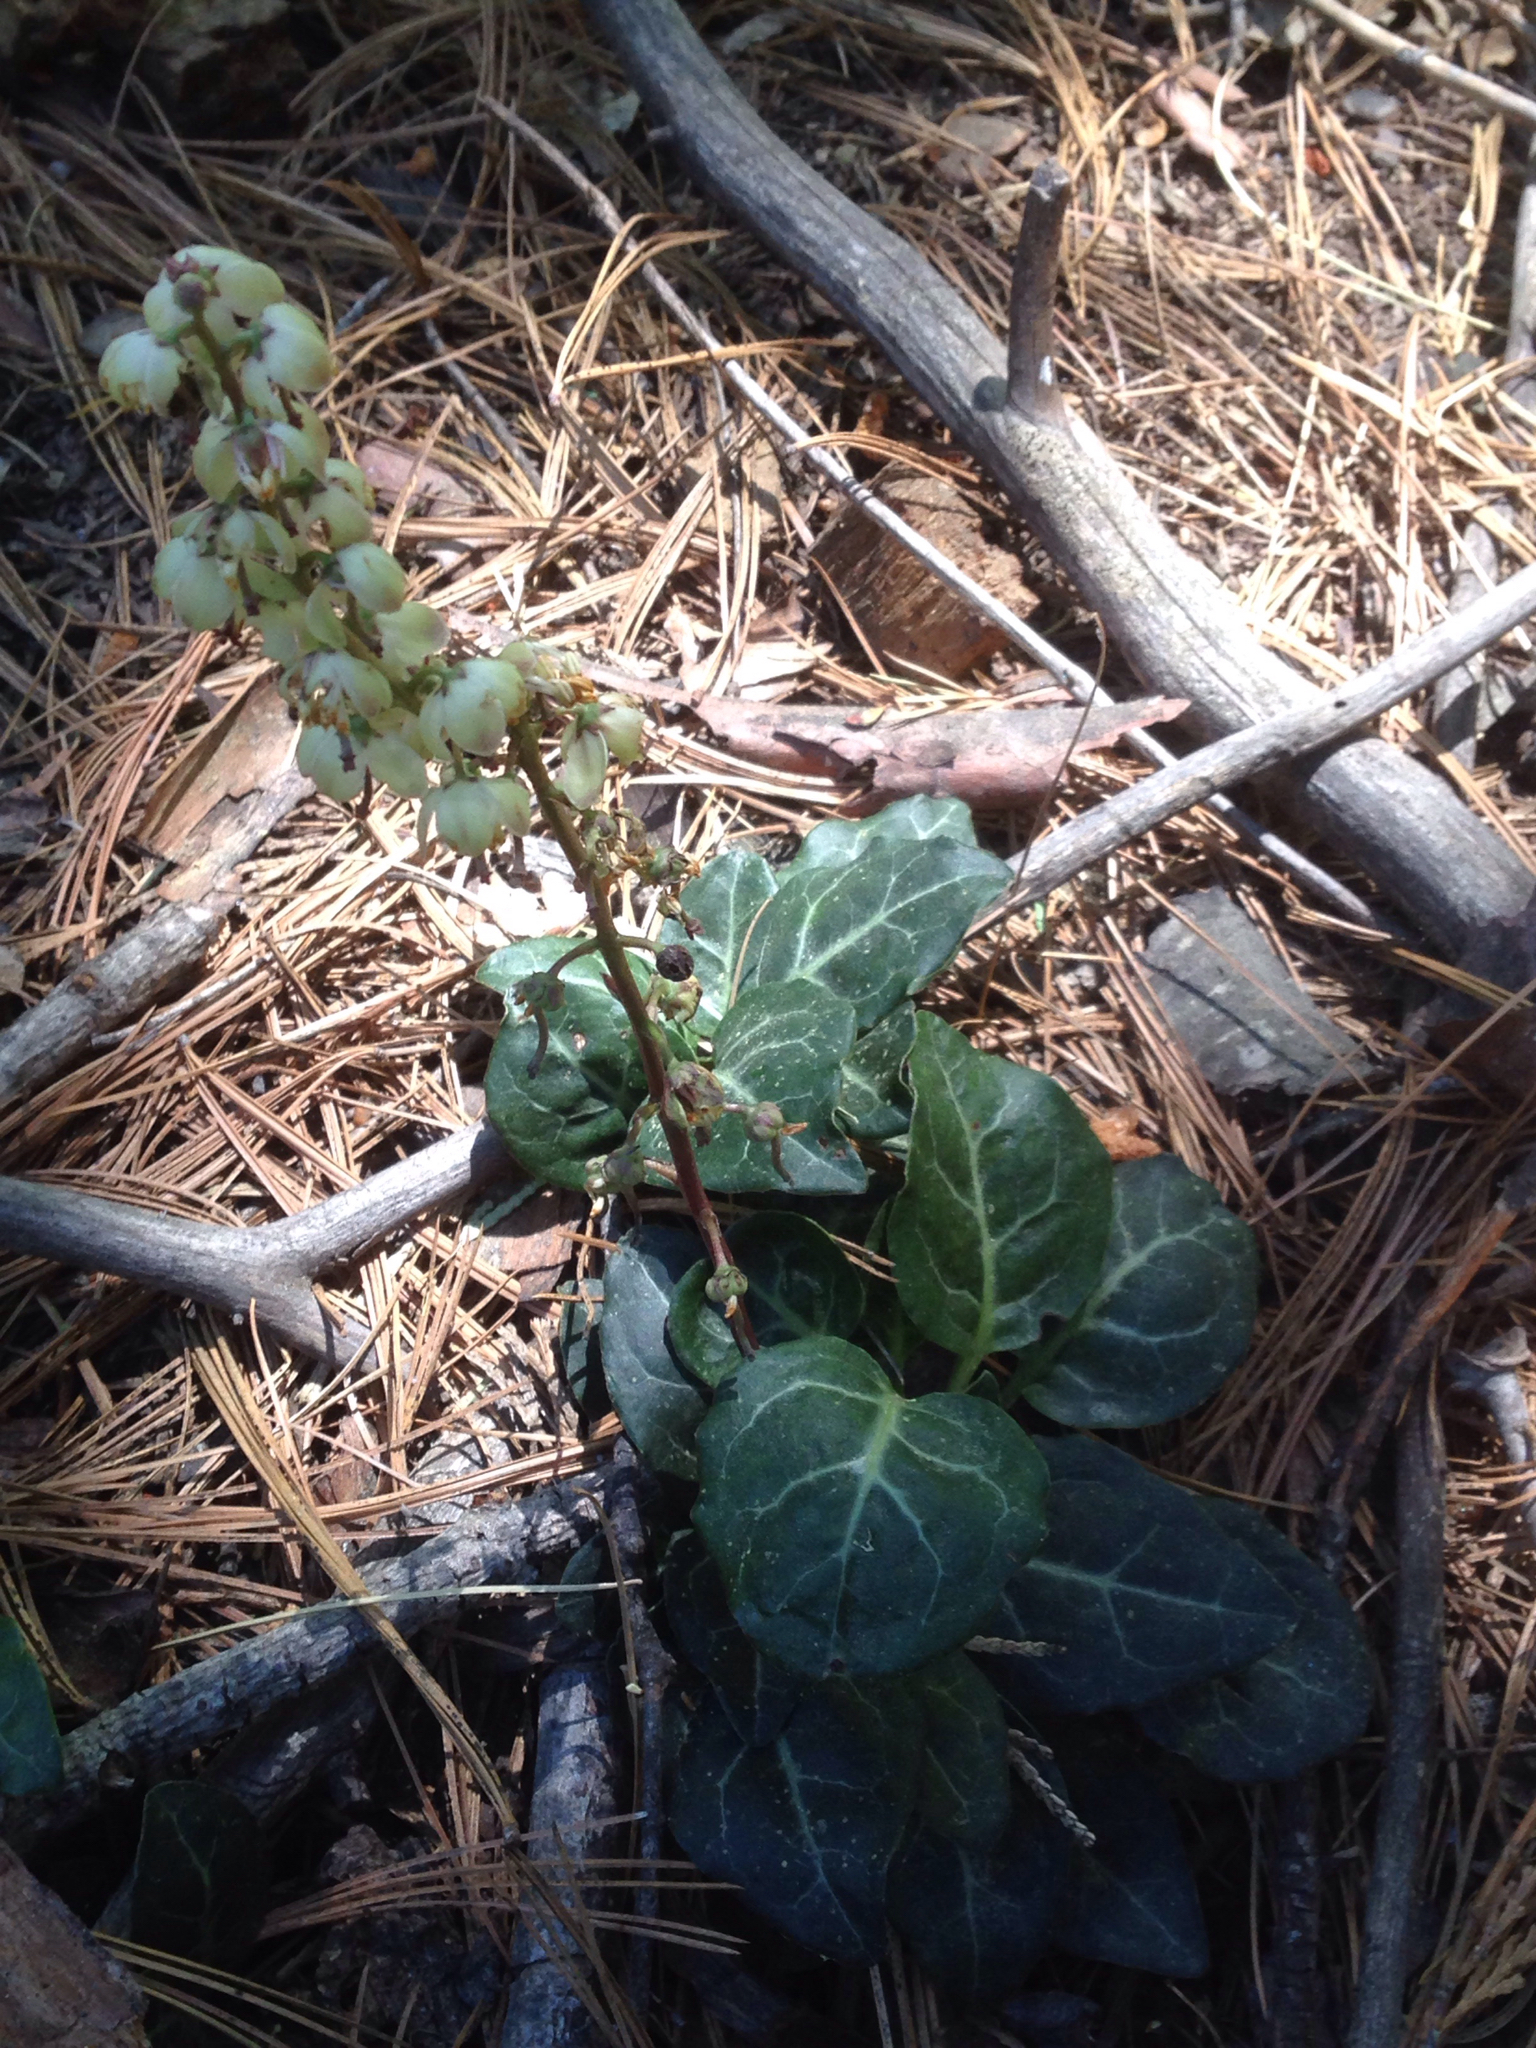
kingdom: Plantae
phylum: Tracheophyta
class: Magnoliopsida
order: Ericales
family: Ericaceae
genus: Pyrola
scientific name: Pyrola picta
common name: White-vein wintergreen
